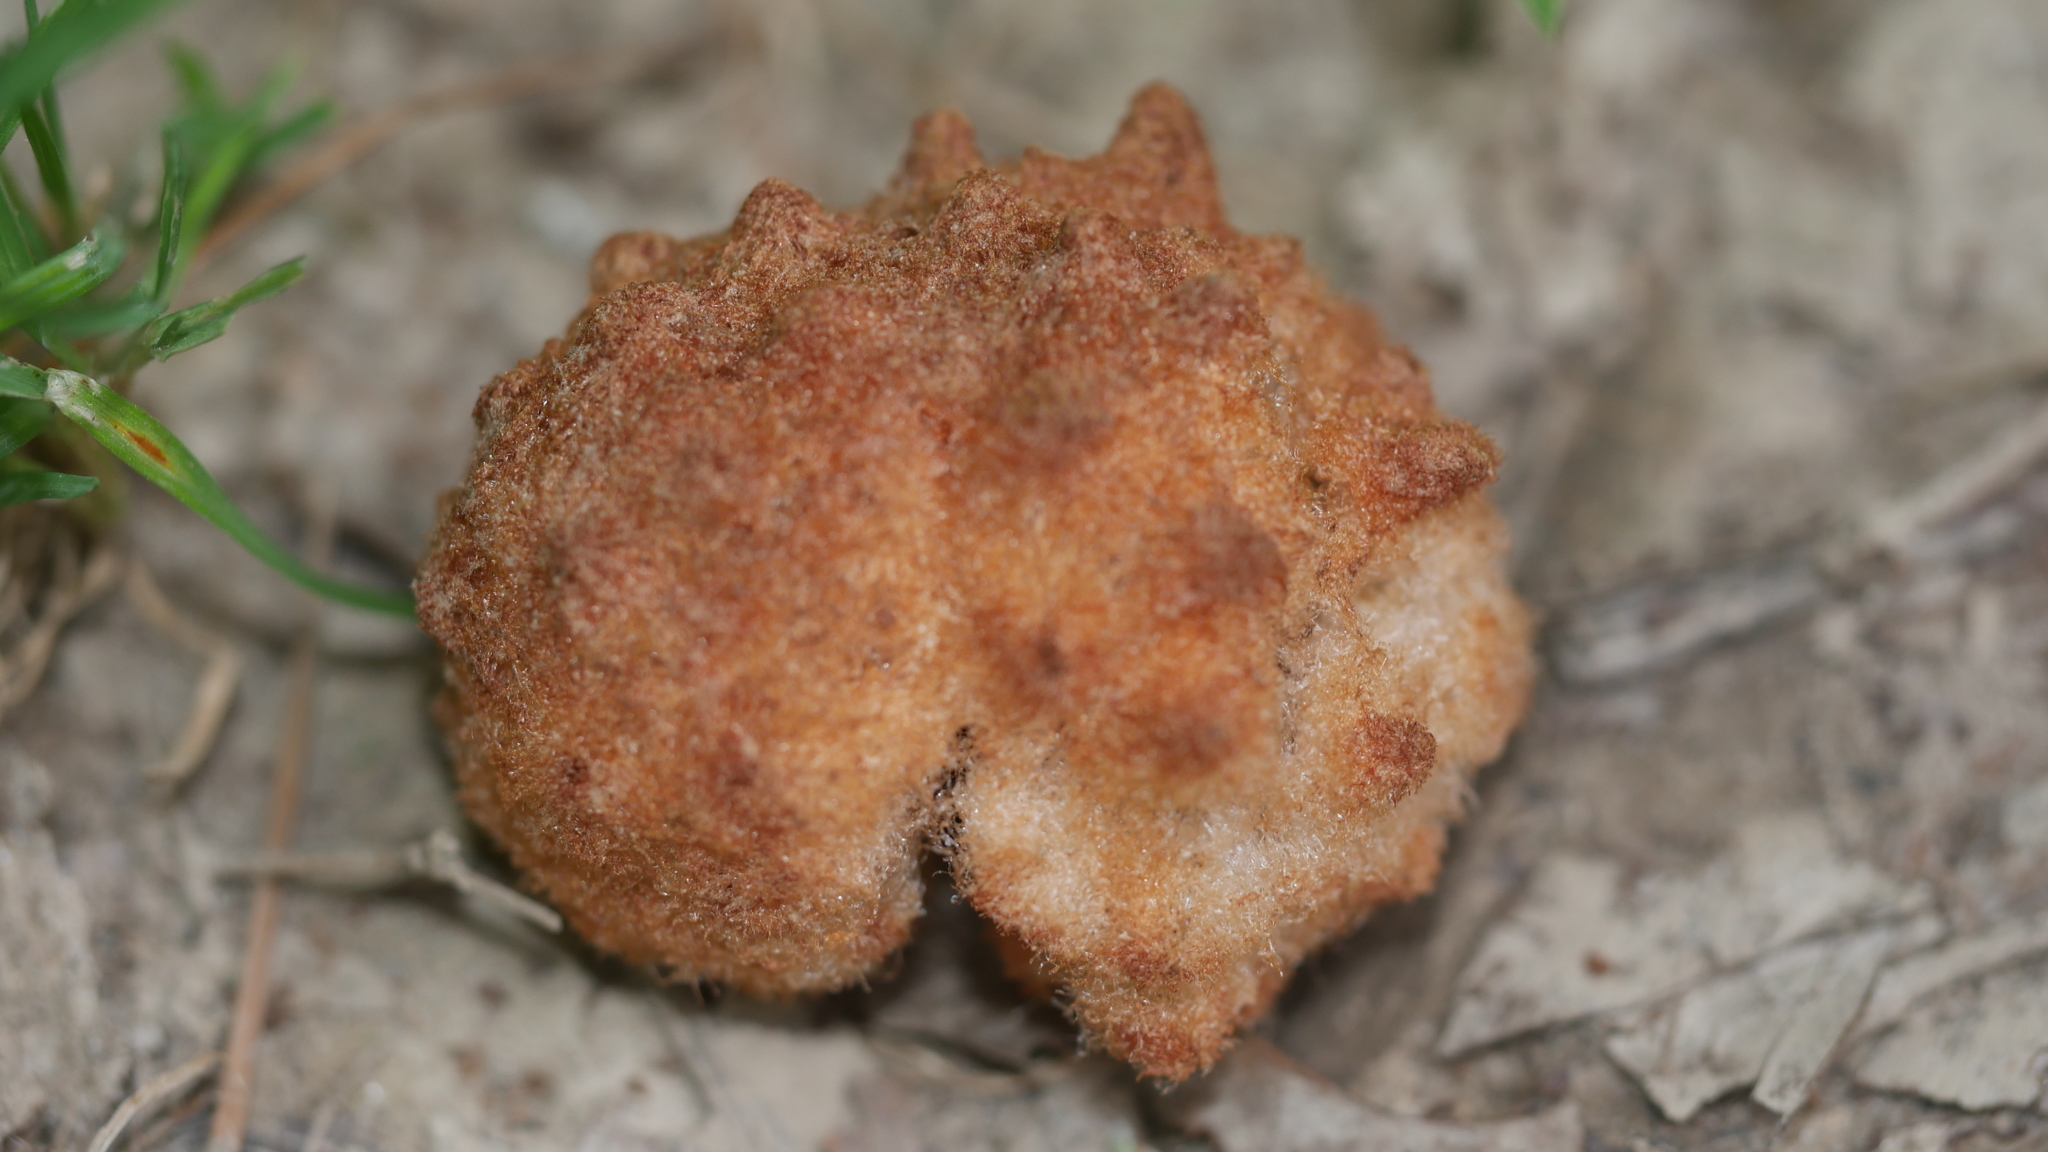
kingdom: Animalia
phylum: Arthropoda
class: Insecta
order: Hymenoptera
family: Cynipidae
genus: Callirhytis
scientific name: Callirhytis
